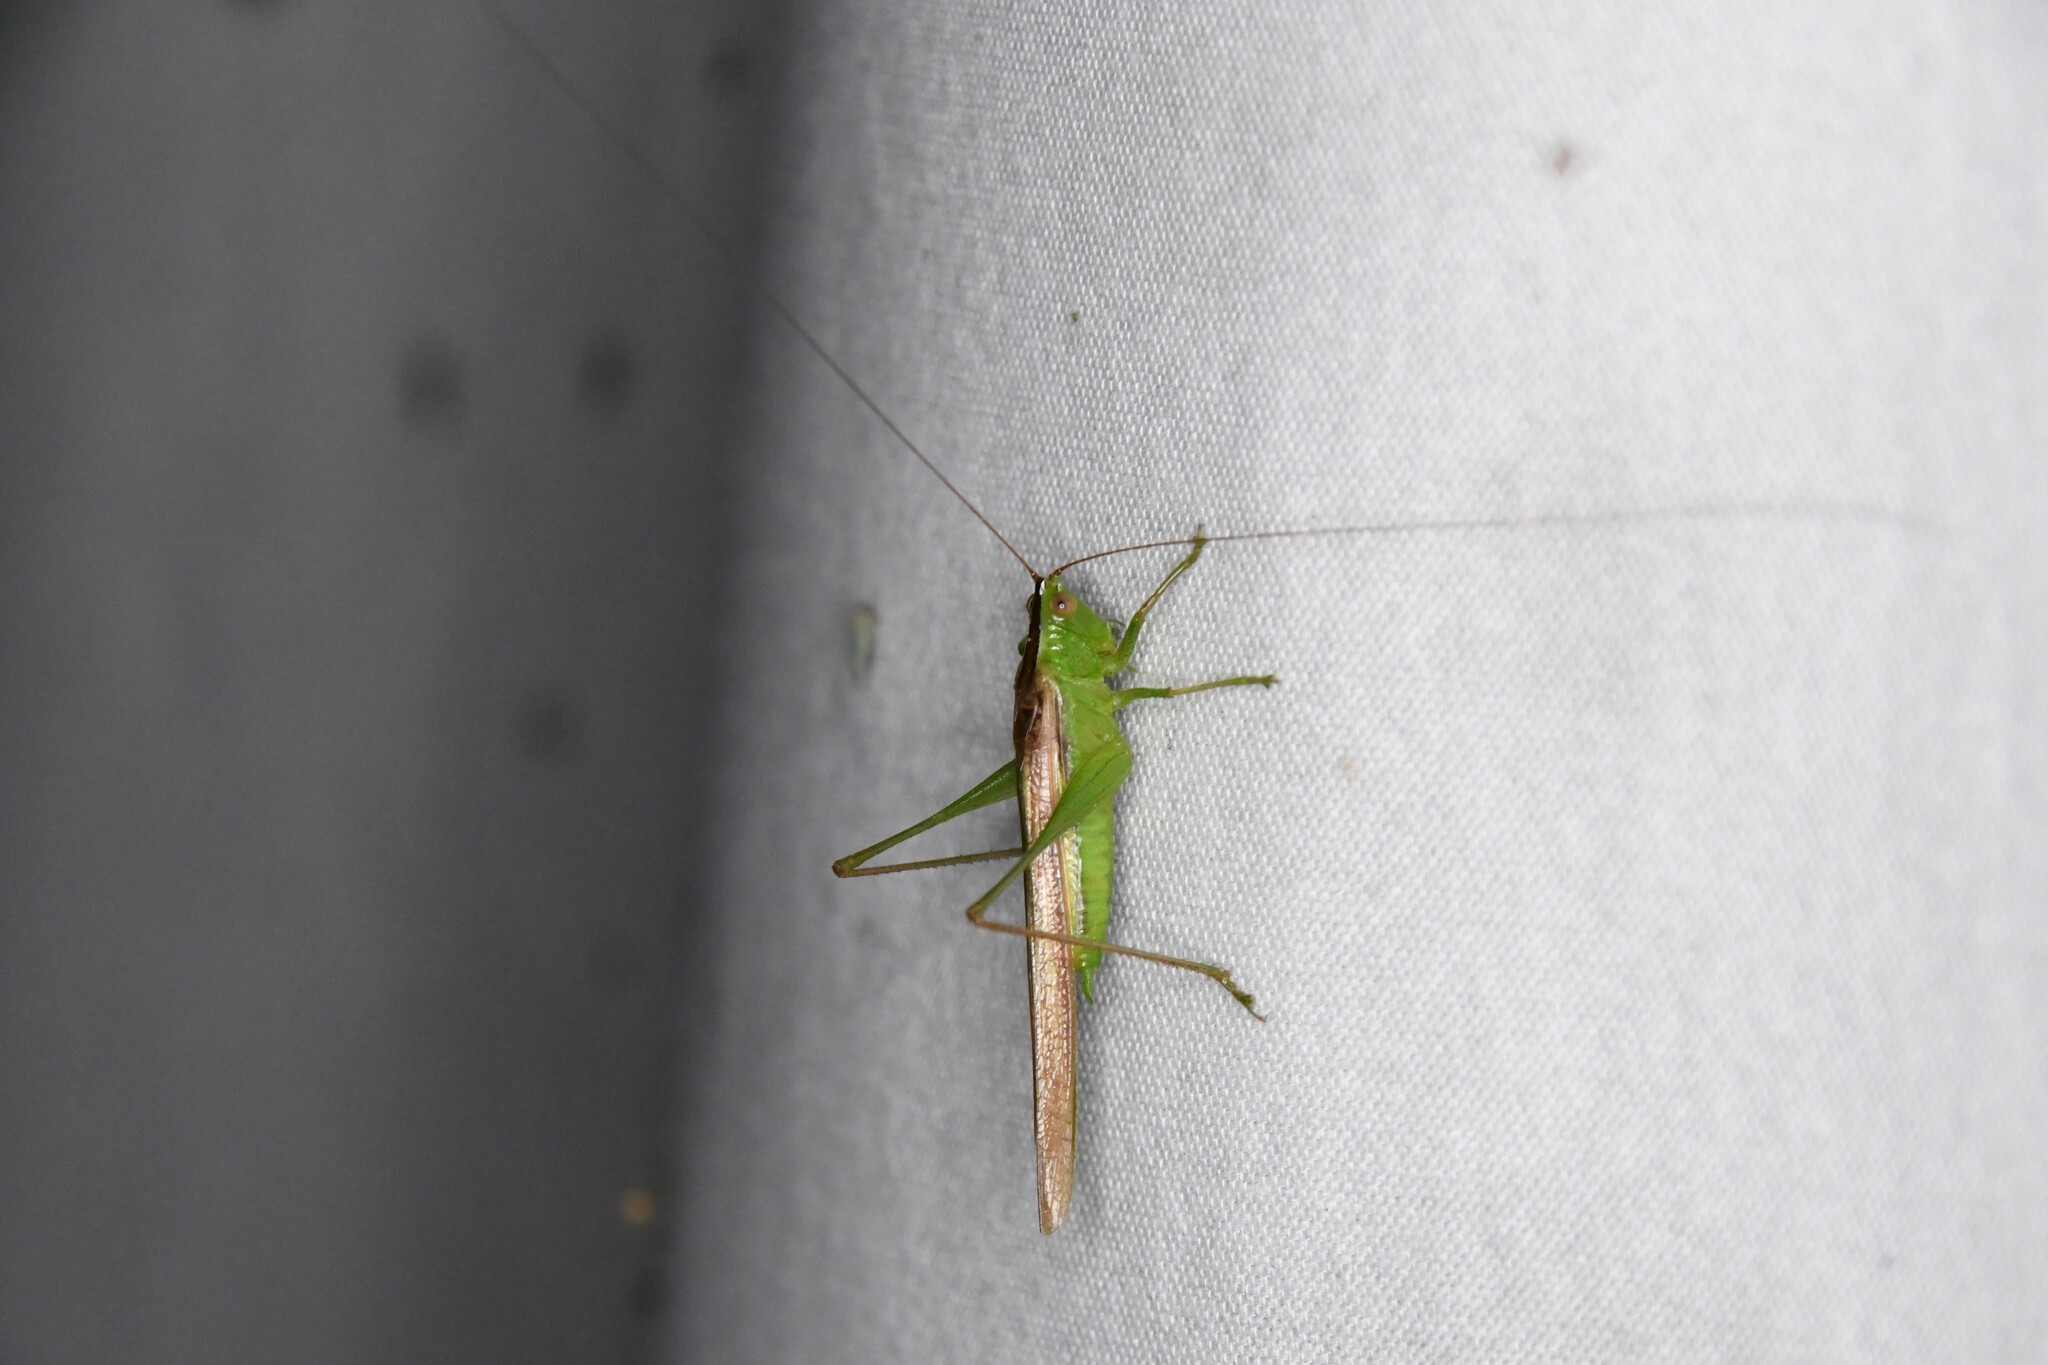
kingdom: Animalia
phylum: Arthropoda
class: Insecta
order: Orthoptera
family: Tettigoniidae
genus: Conocephalus
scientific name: Conocephalus fasciatus
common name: Slender meadow katydid
